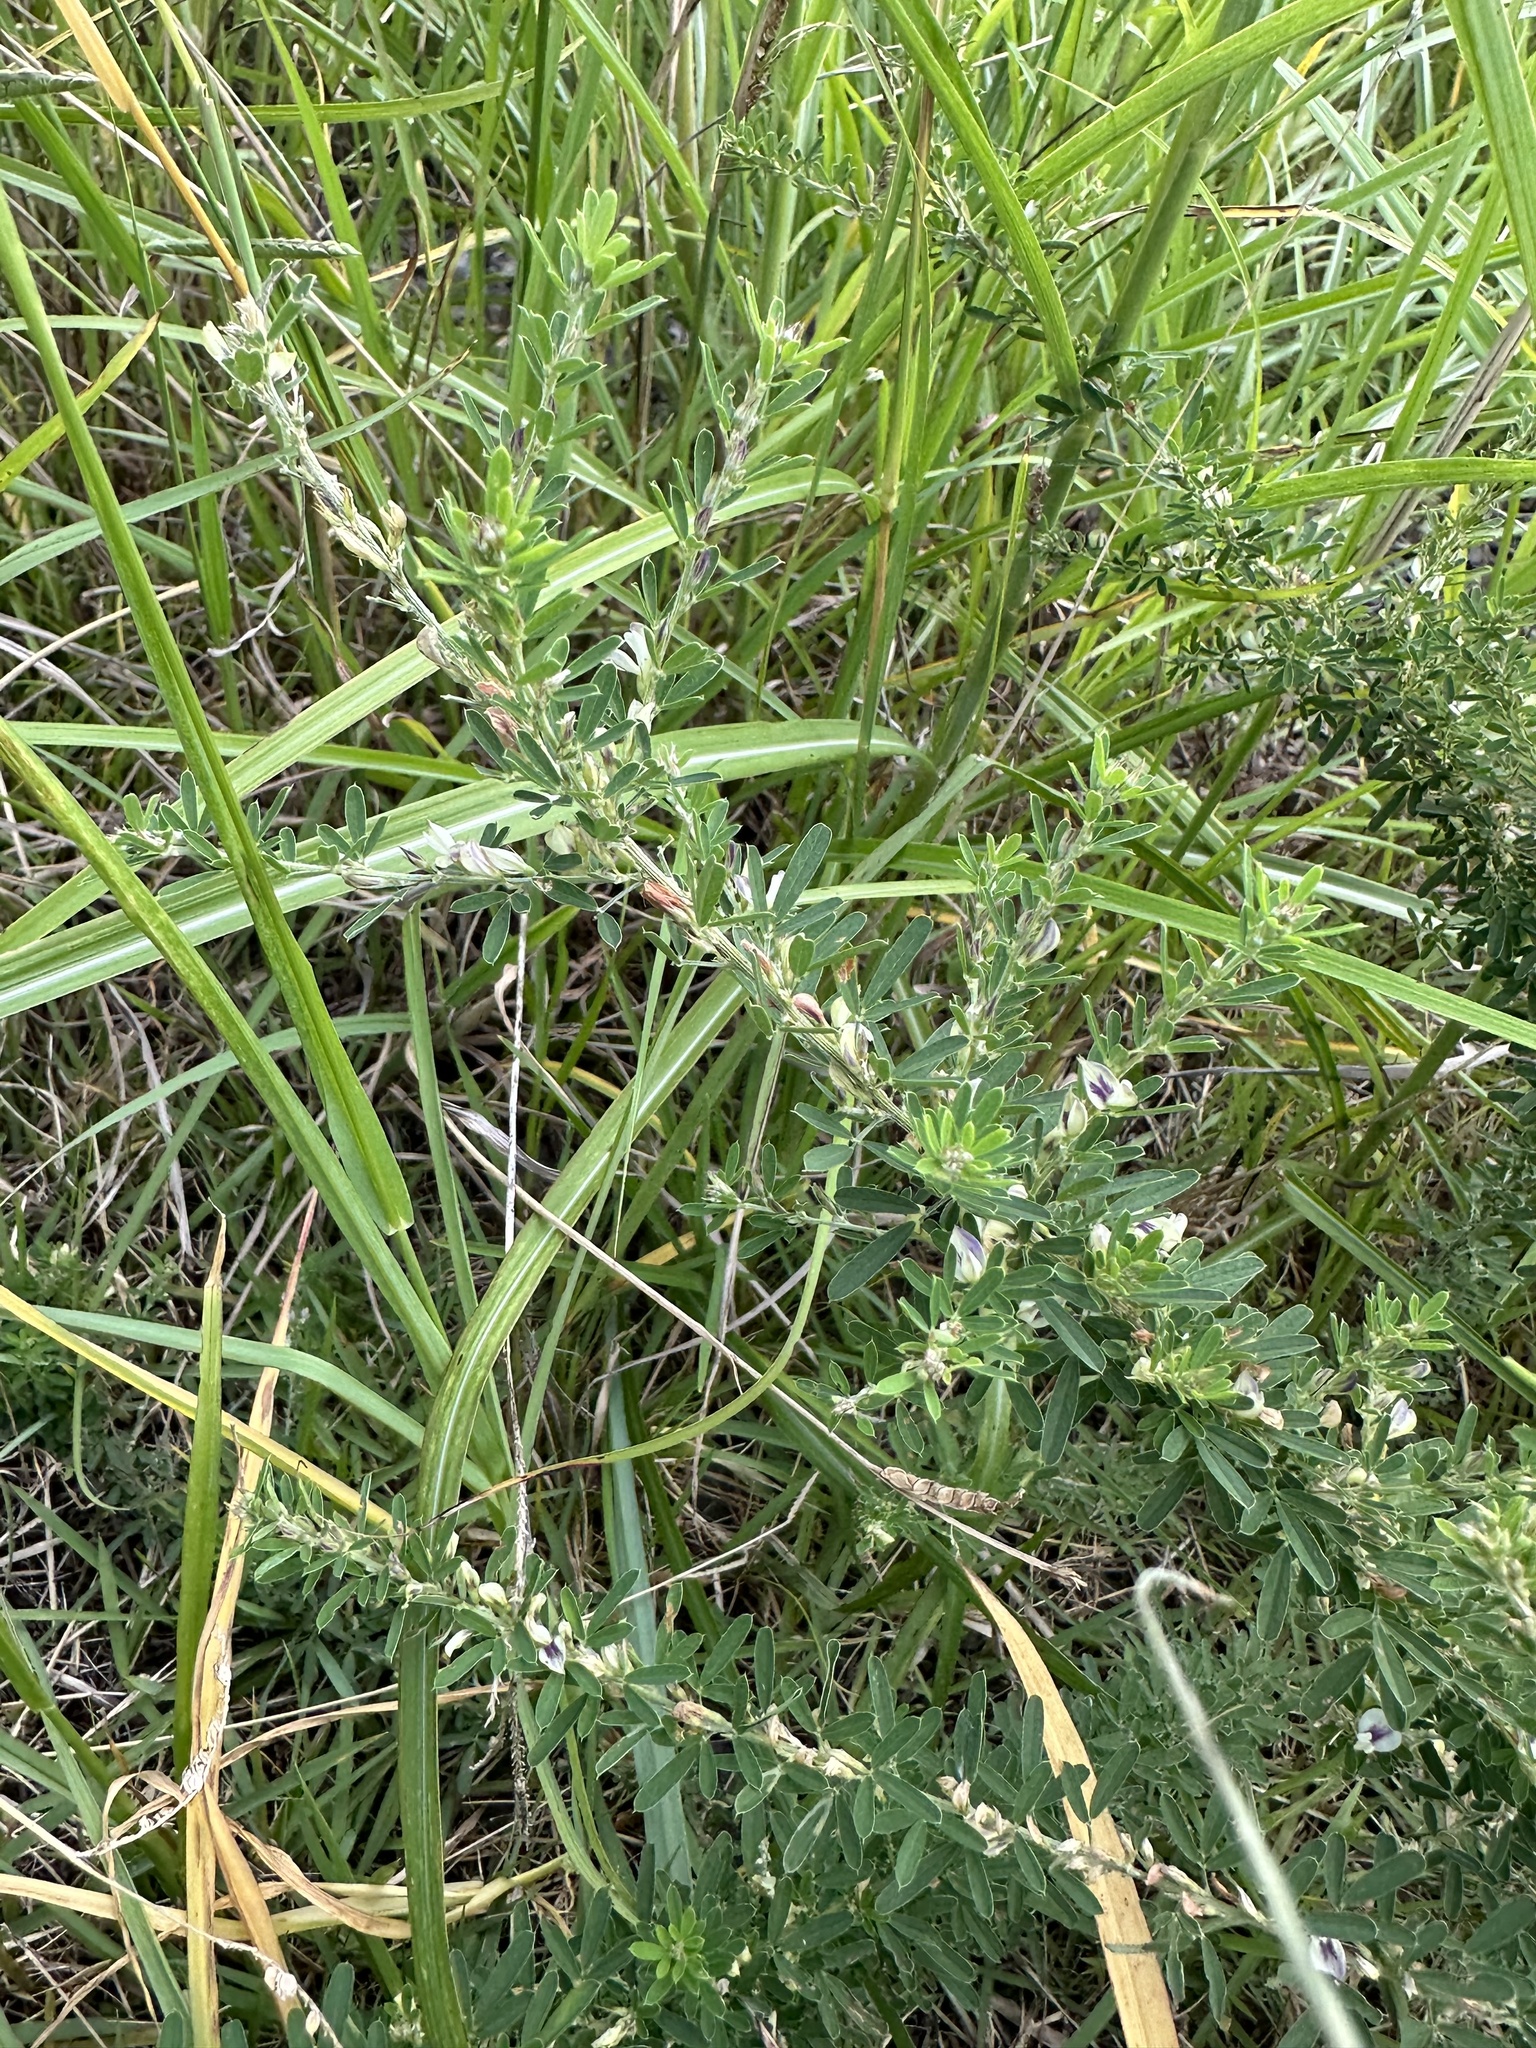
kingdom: Plantae
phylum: Tracheophyta
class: Magnoliopsida
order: Fabales
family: Fabaceae
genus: Lespedeza
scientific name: Lespedeza cuneata
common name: Chinese bush-clover
